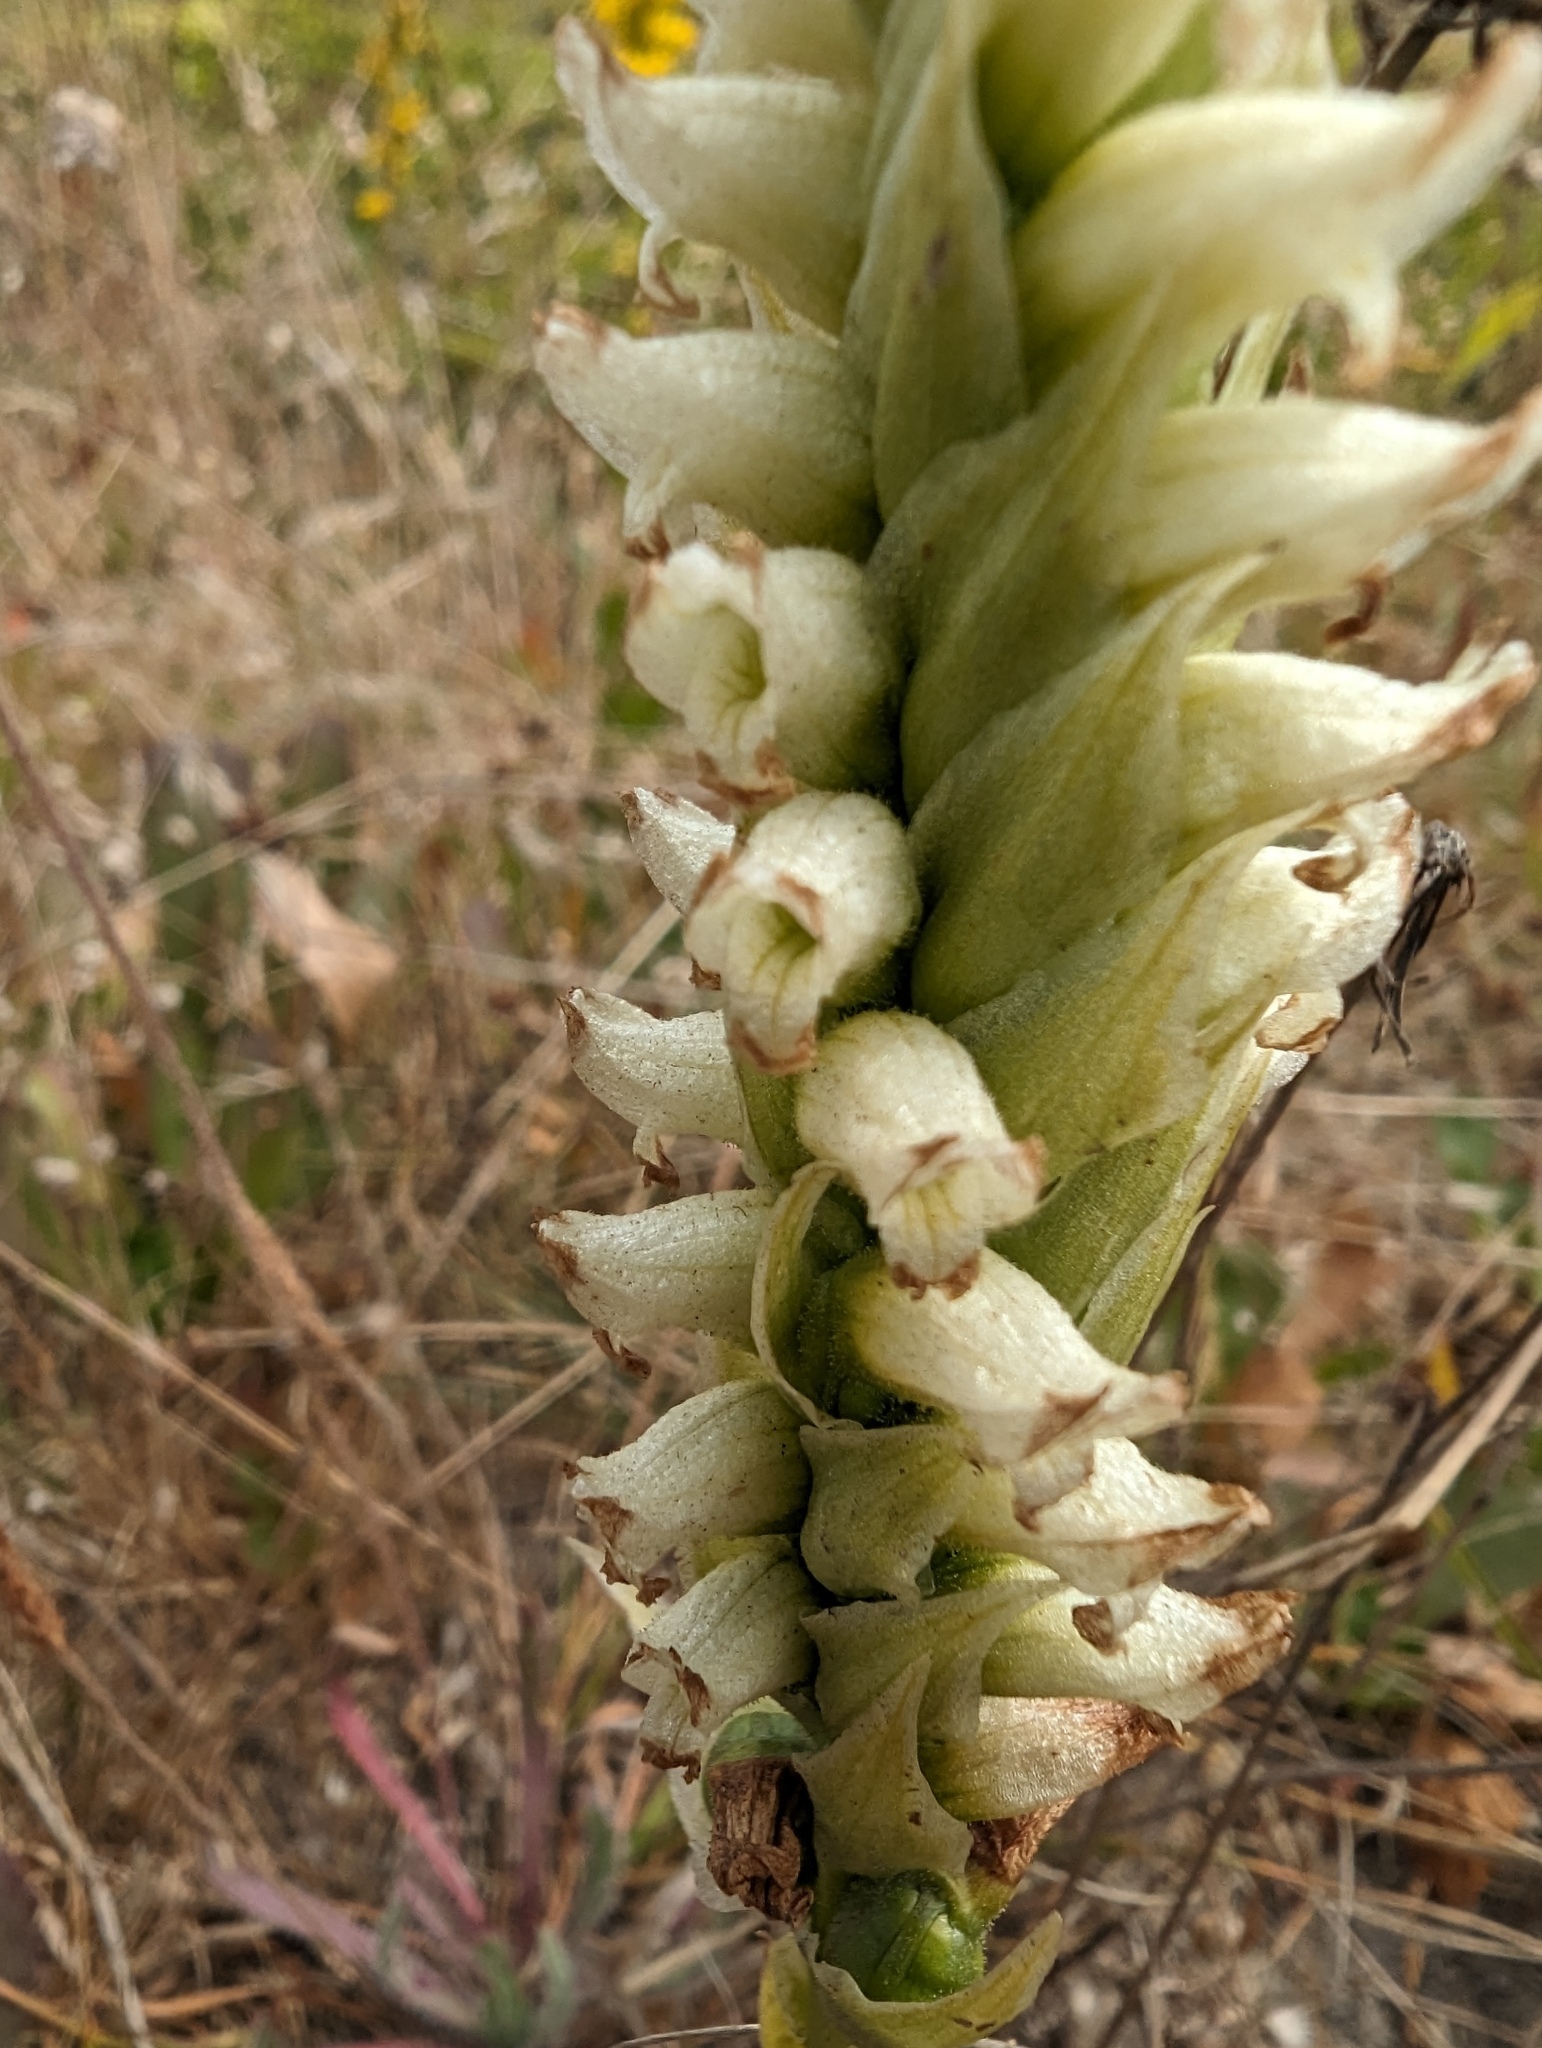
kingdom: Plantae
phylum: Tracheophyta
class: Liliopsida
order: Asparagales
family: Orchidaceae
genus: Spiranthes
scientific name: Spiranthes romanzoffiana
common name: Irish lady's-tresses
